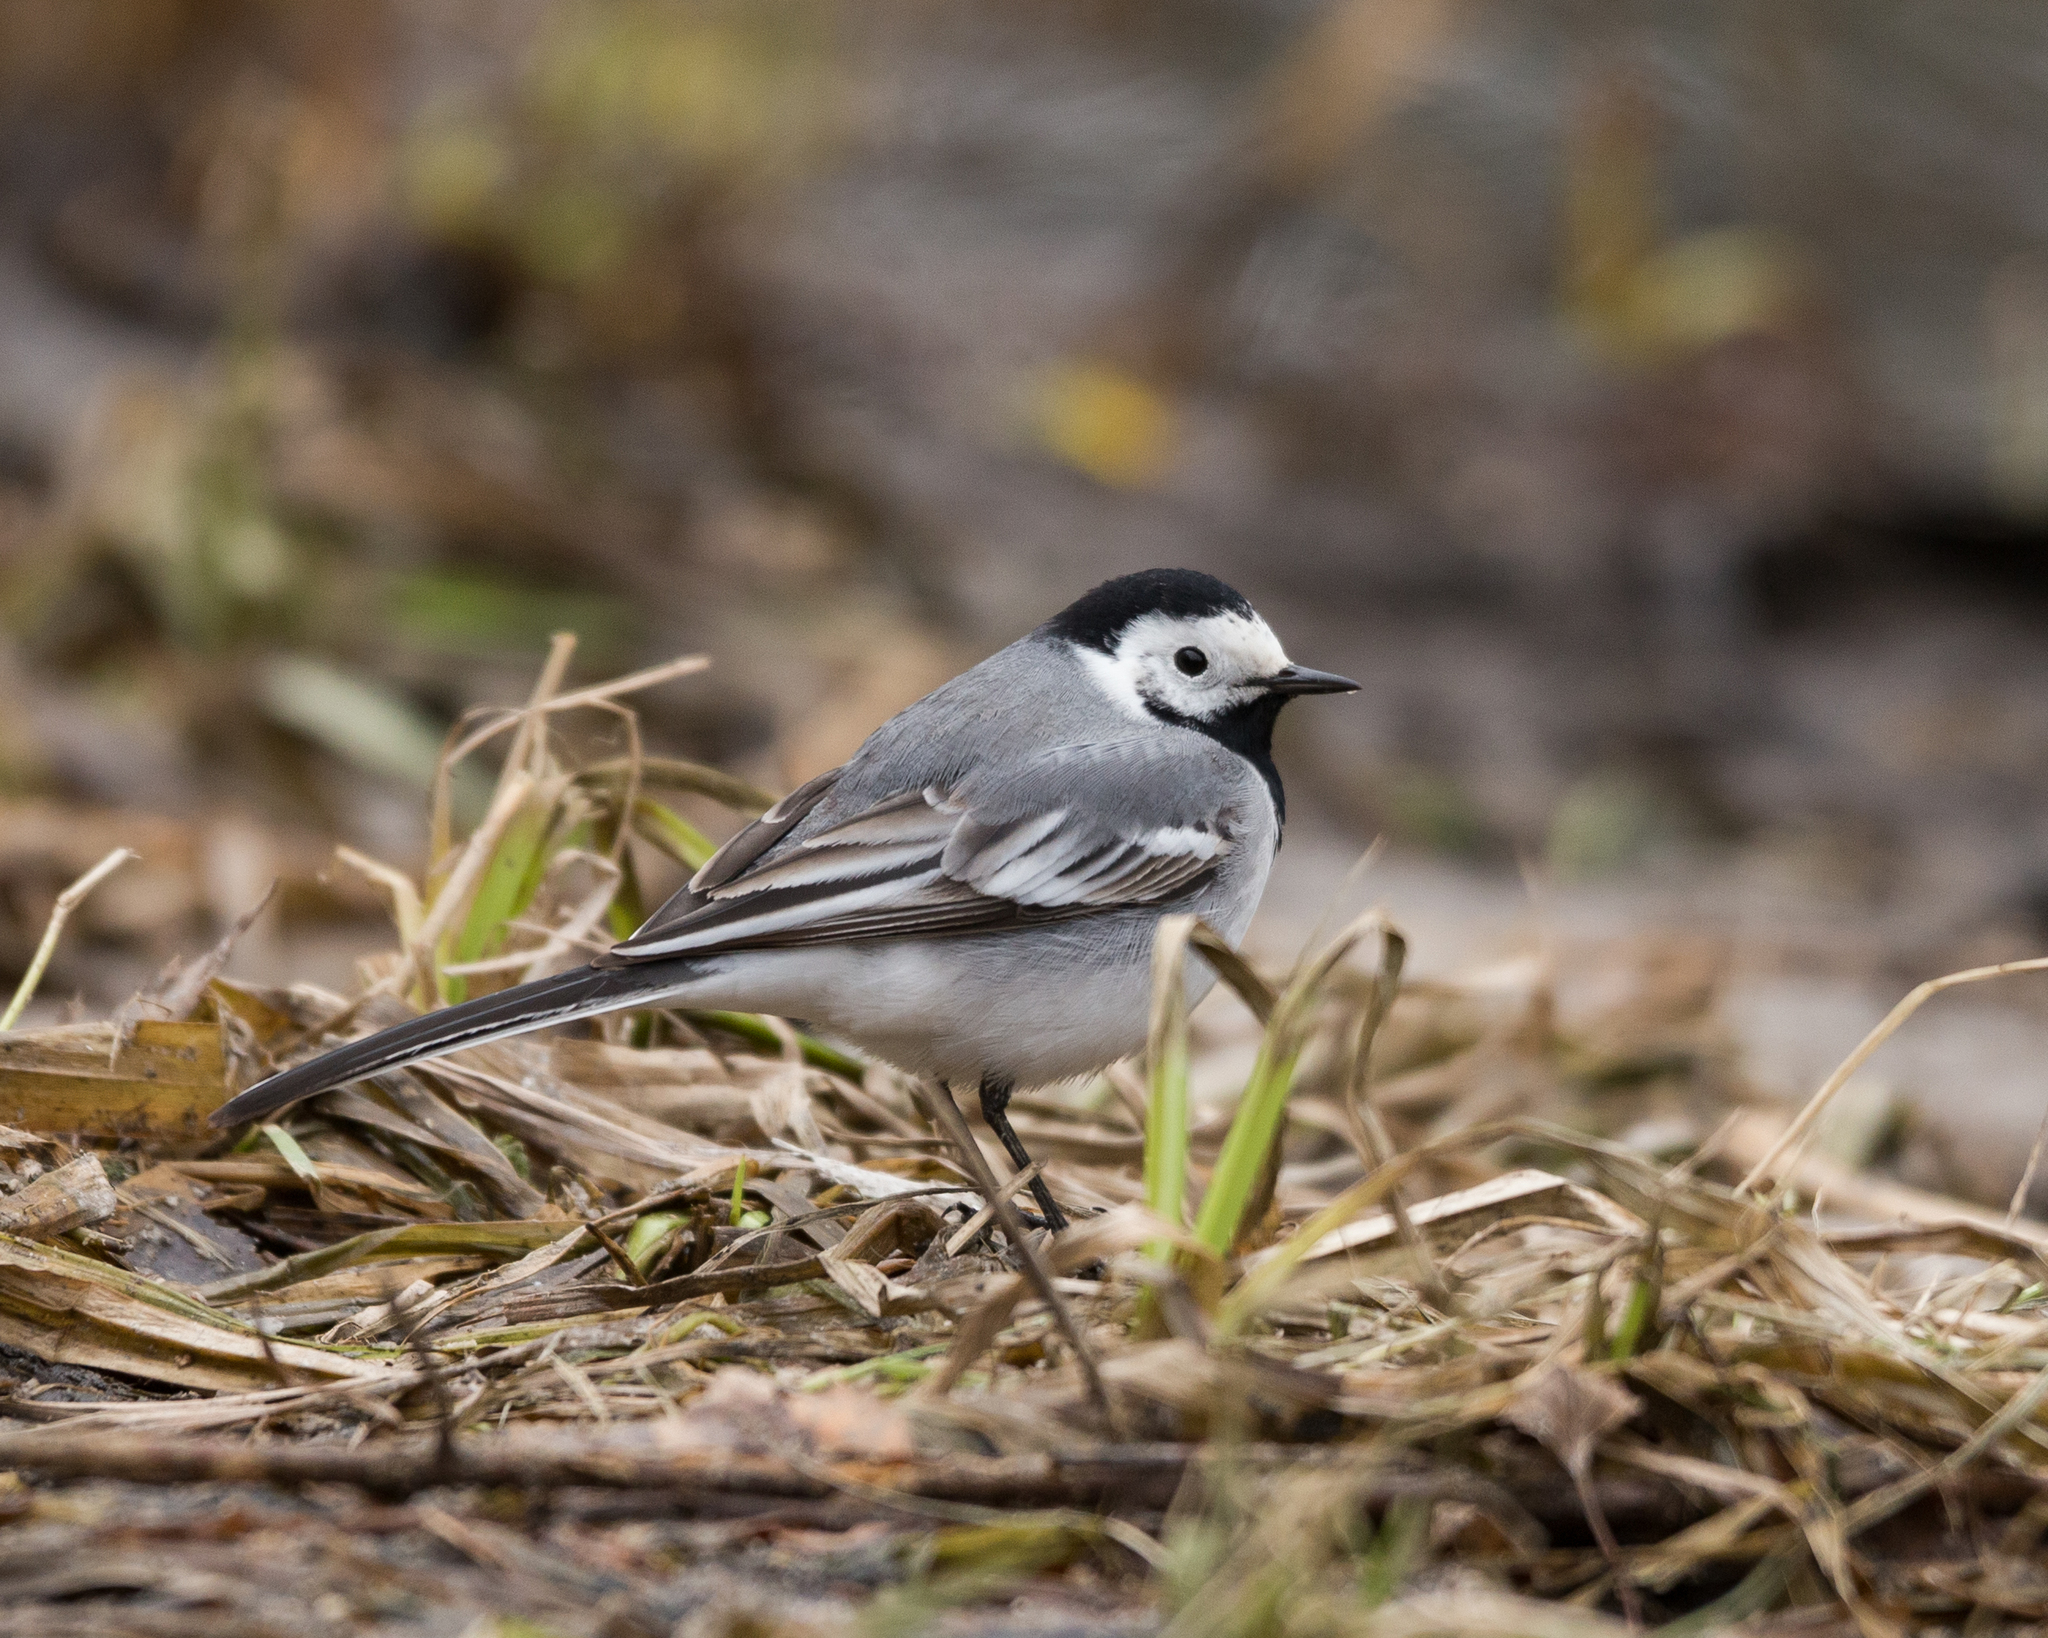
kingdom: Animalia
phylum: Chordata
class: Aves
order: Passeriformes
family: Motacillidae
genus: Motacilla
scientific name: Motacilla alba
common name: White wagtail
